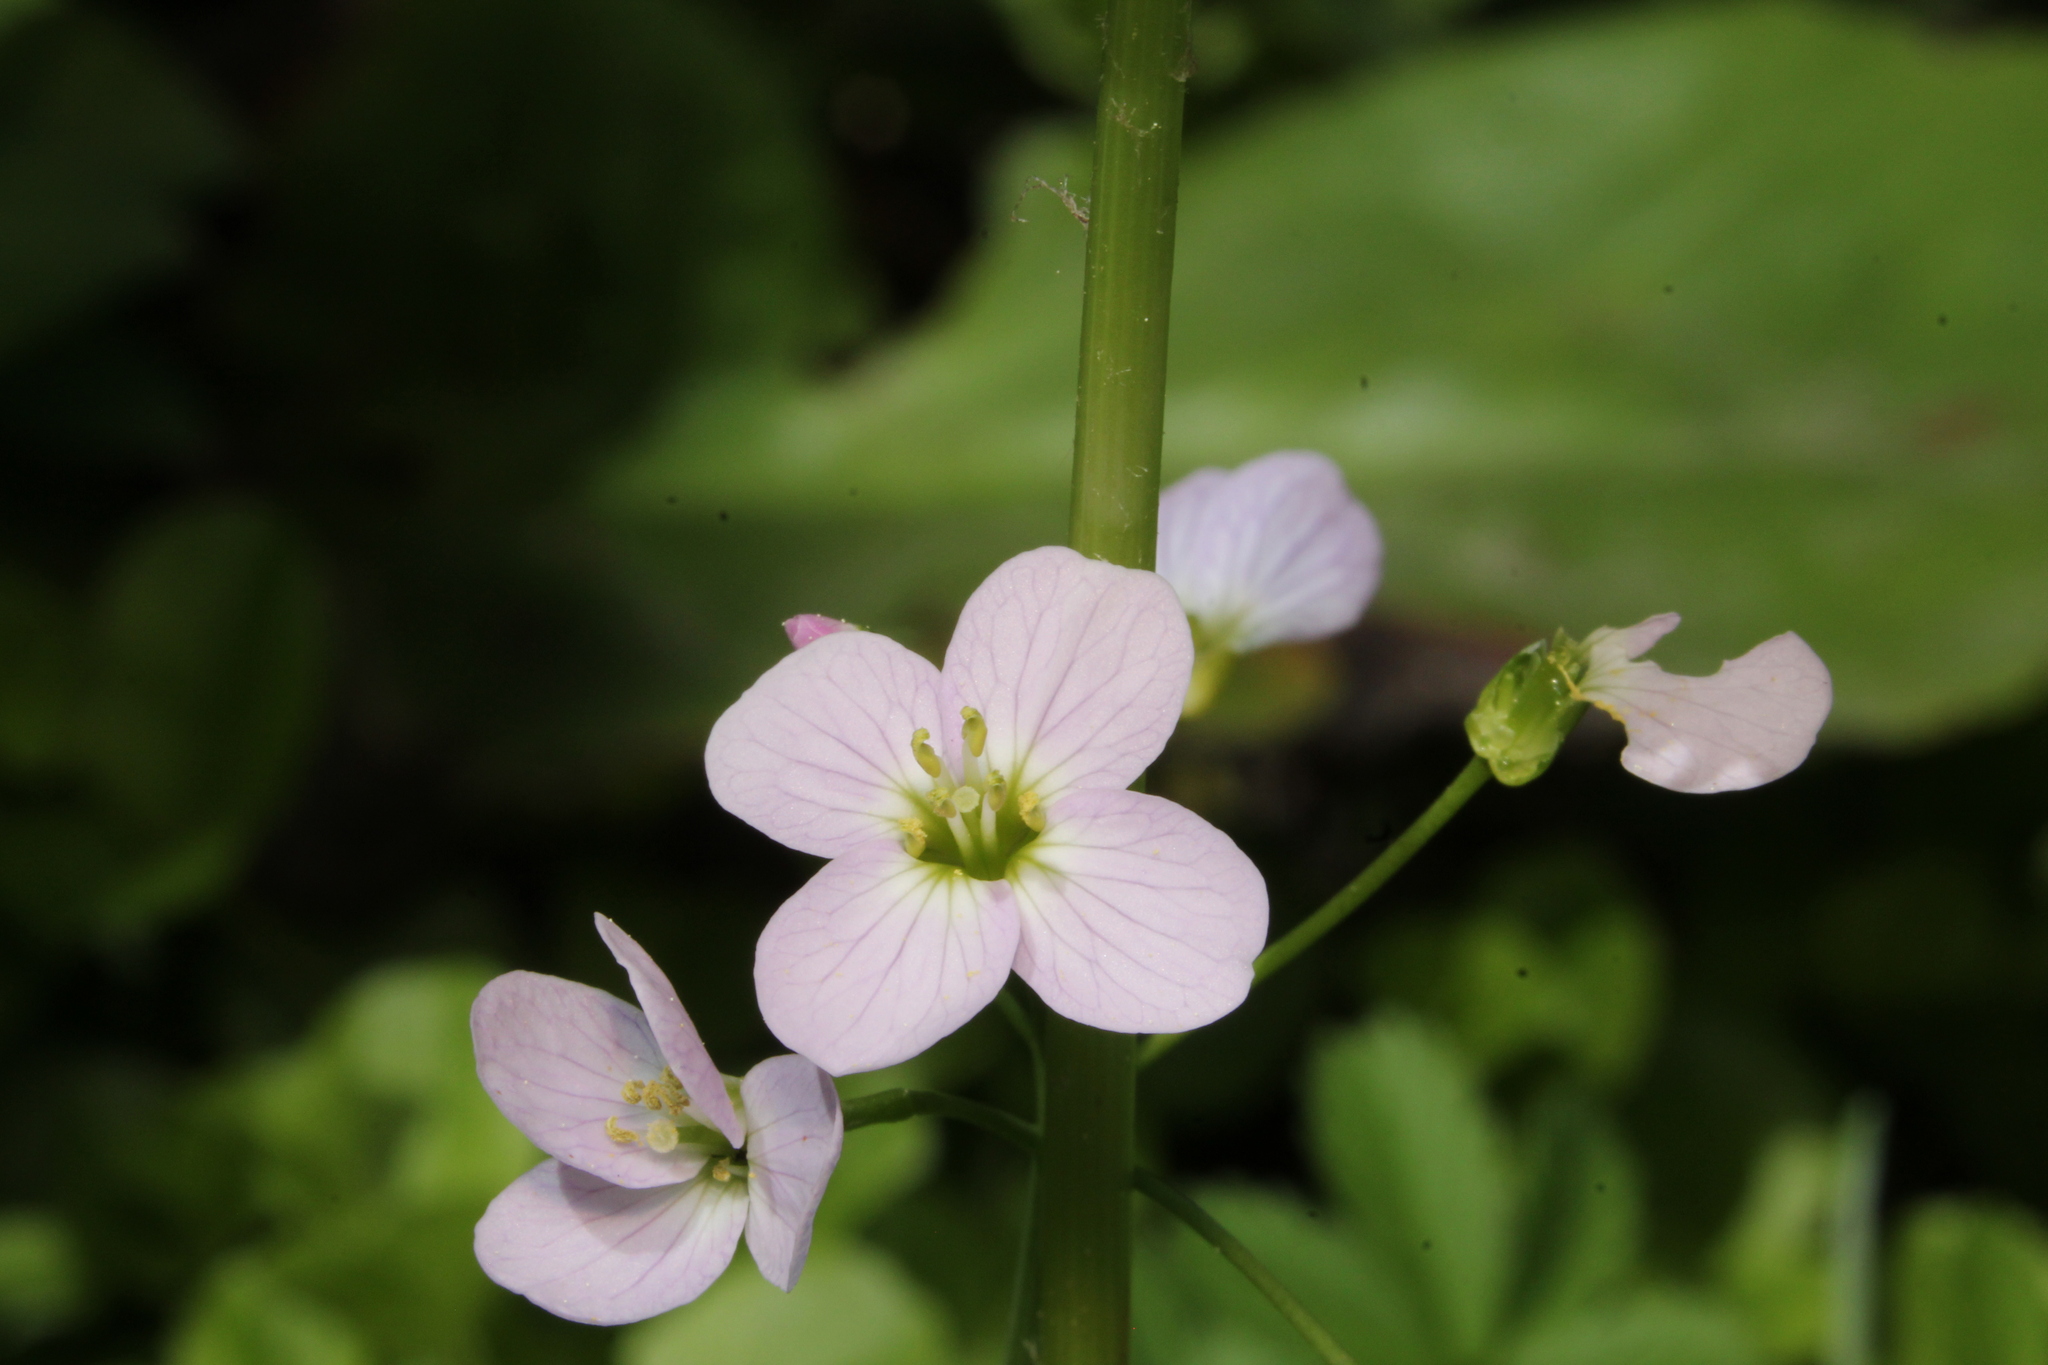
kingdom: Plantae
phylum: Tracheophyta
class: Magnoliopsida
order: Brassicales
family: Brassicaceae
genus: Cardamine
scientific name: Cardamine pratensis
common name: Cuckoo flower
